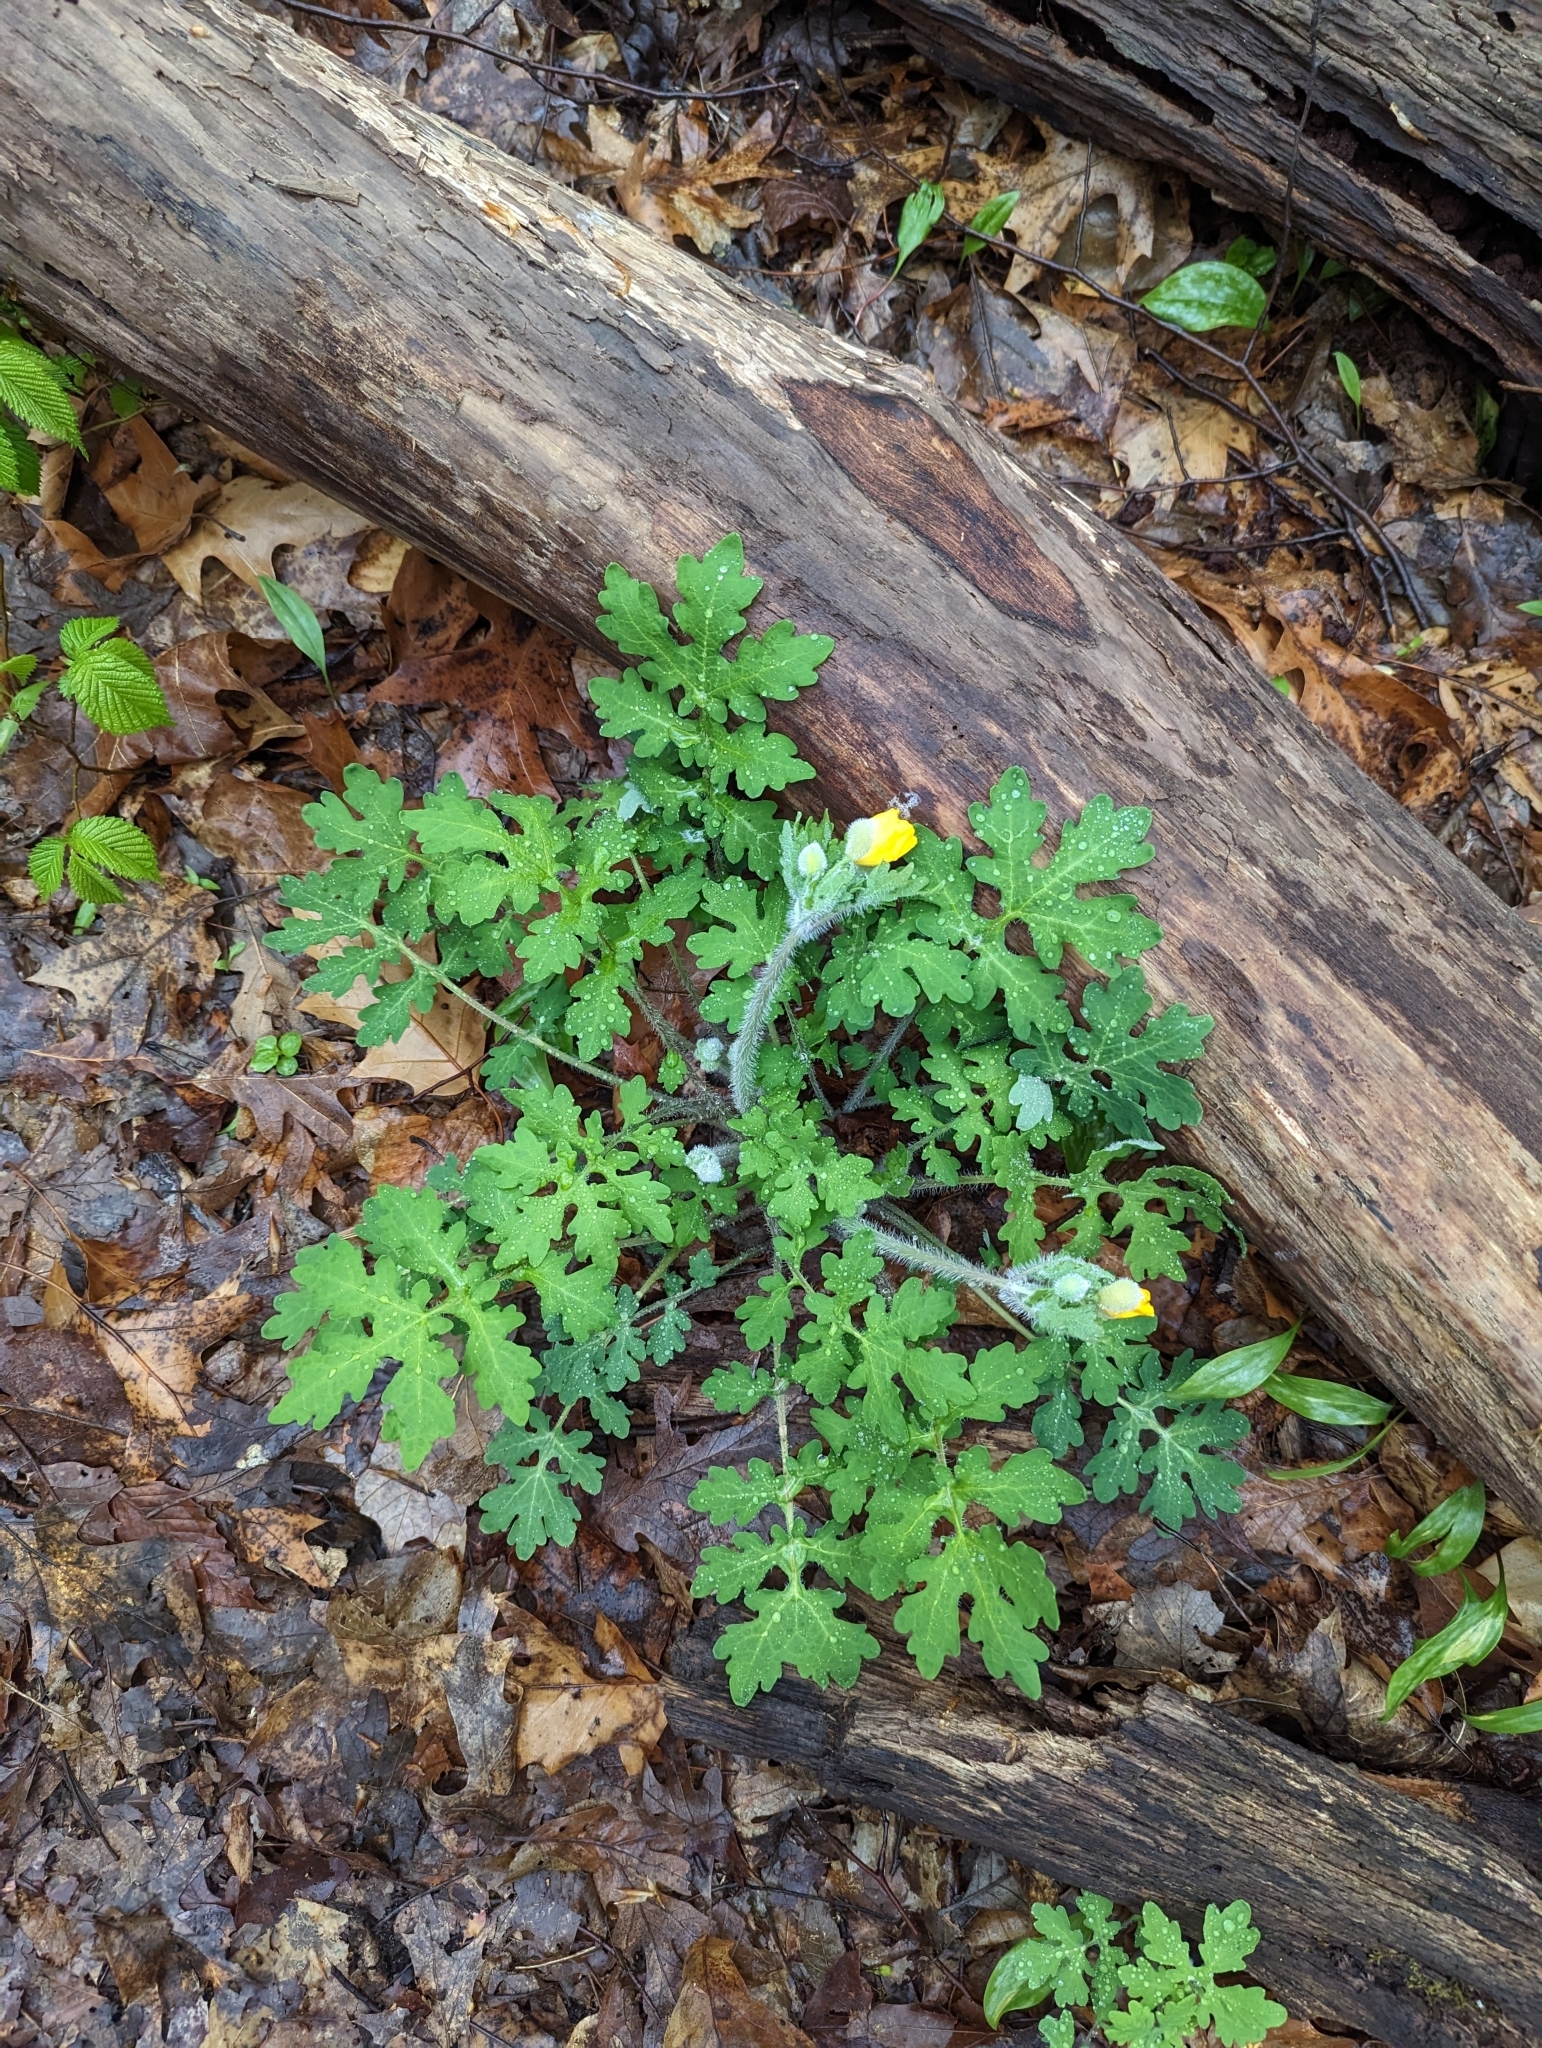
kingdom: Plantae
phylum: Tracheophyta
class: Magnoliopsida
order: Ranunculales
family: Papaveraceae
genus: Stylophorum
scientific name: Stylophorum diphyllum
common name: Celandine poppy
